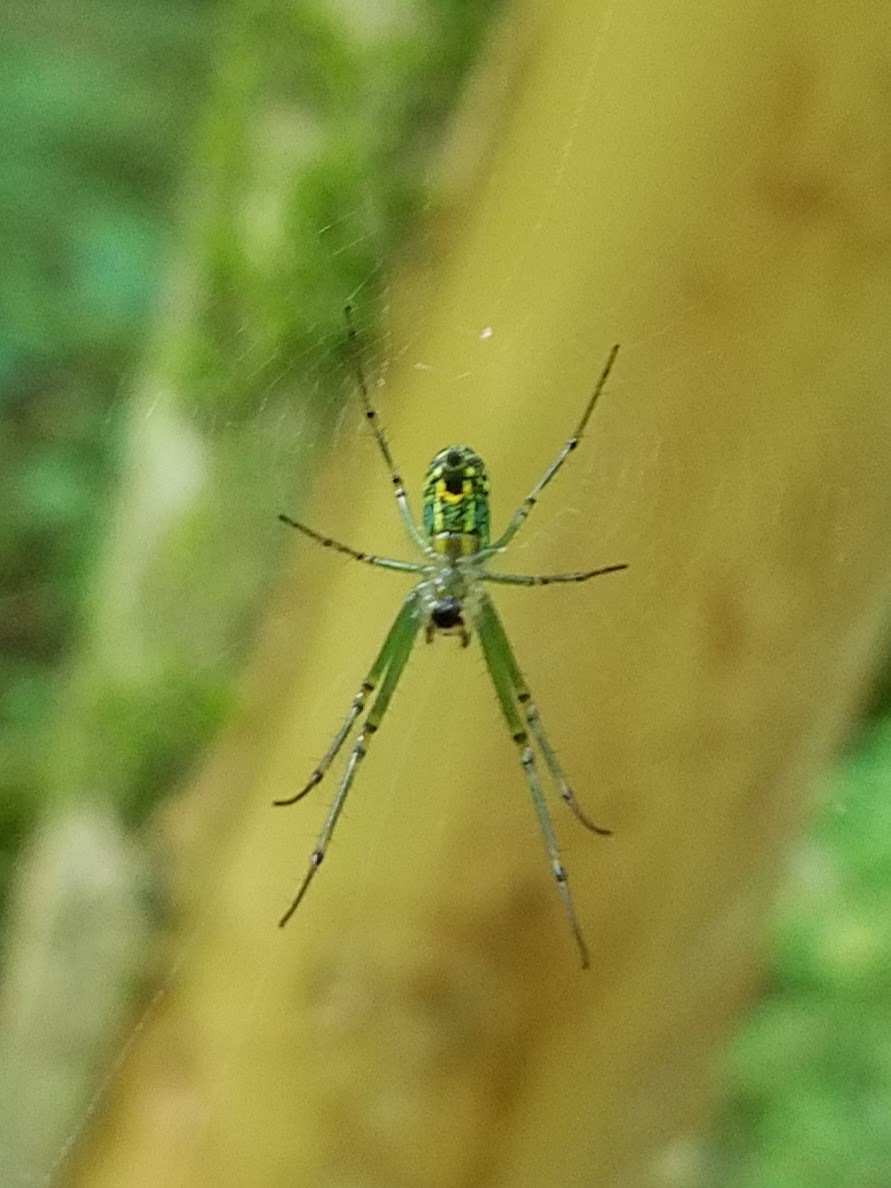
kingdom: Animalia
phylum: Arthropoda
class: Arachnida
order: Araneae
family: Tetragnathidae
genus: Leucauge
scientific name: Leucauge venusta
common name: Longjawed orb weavers
